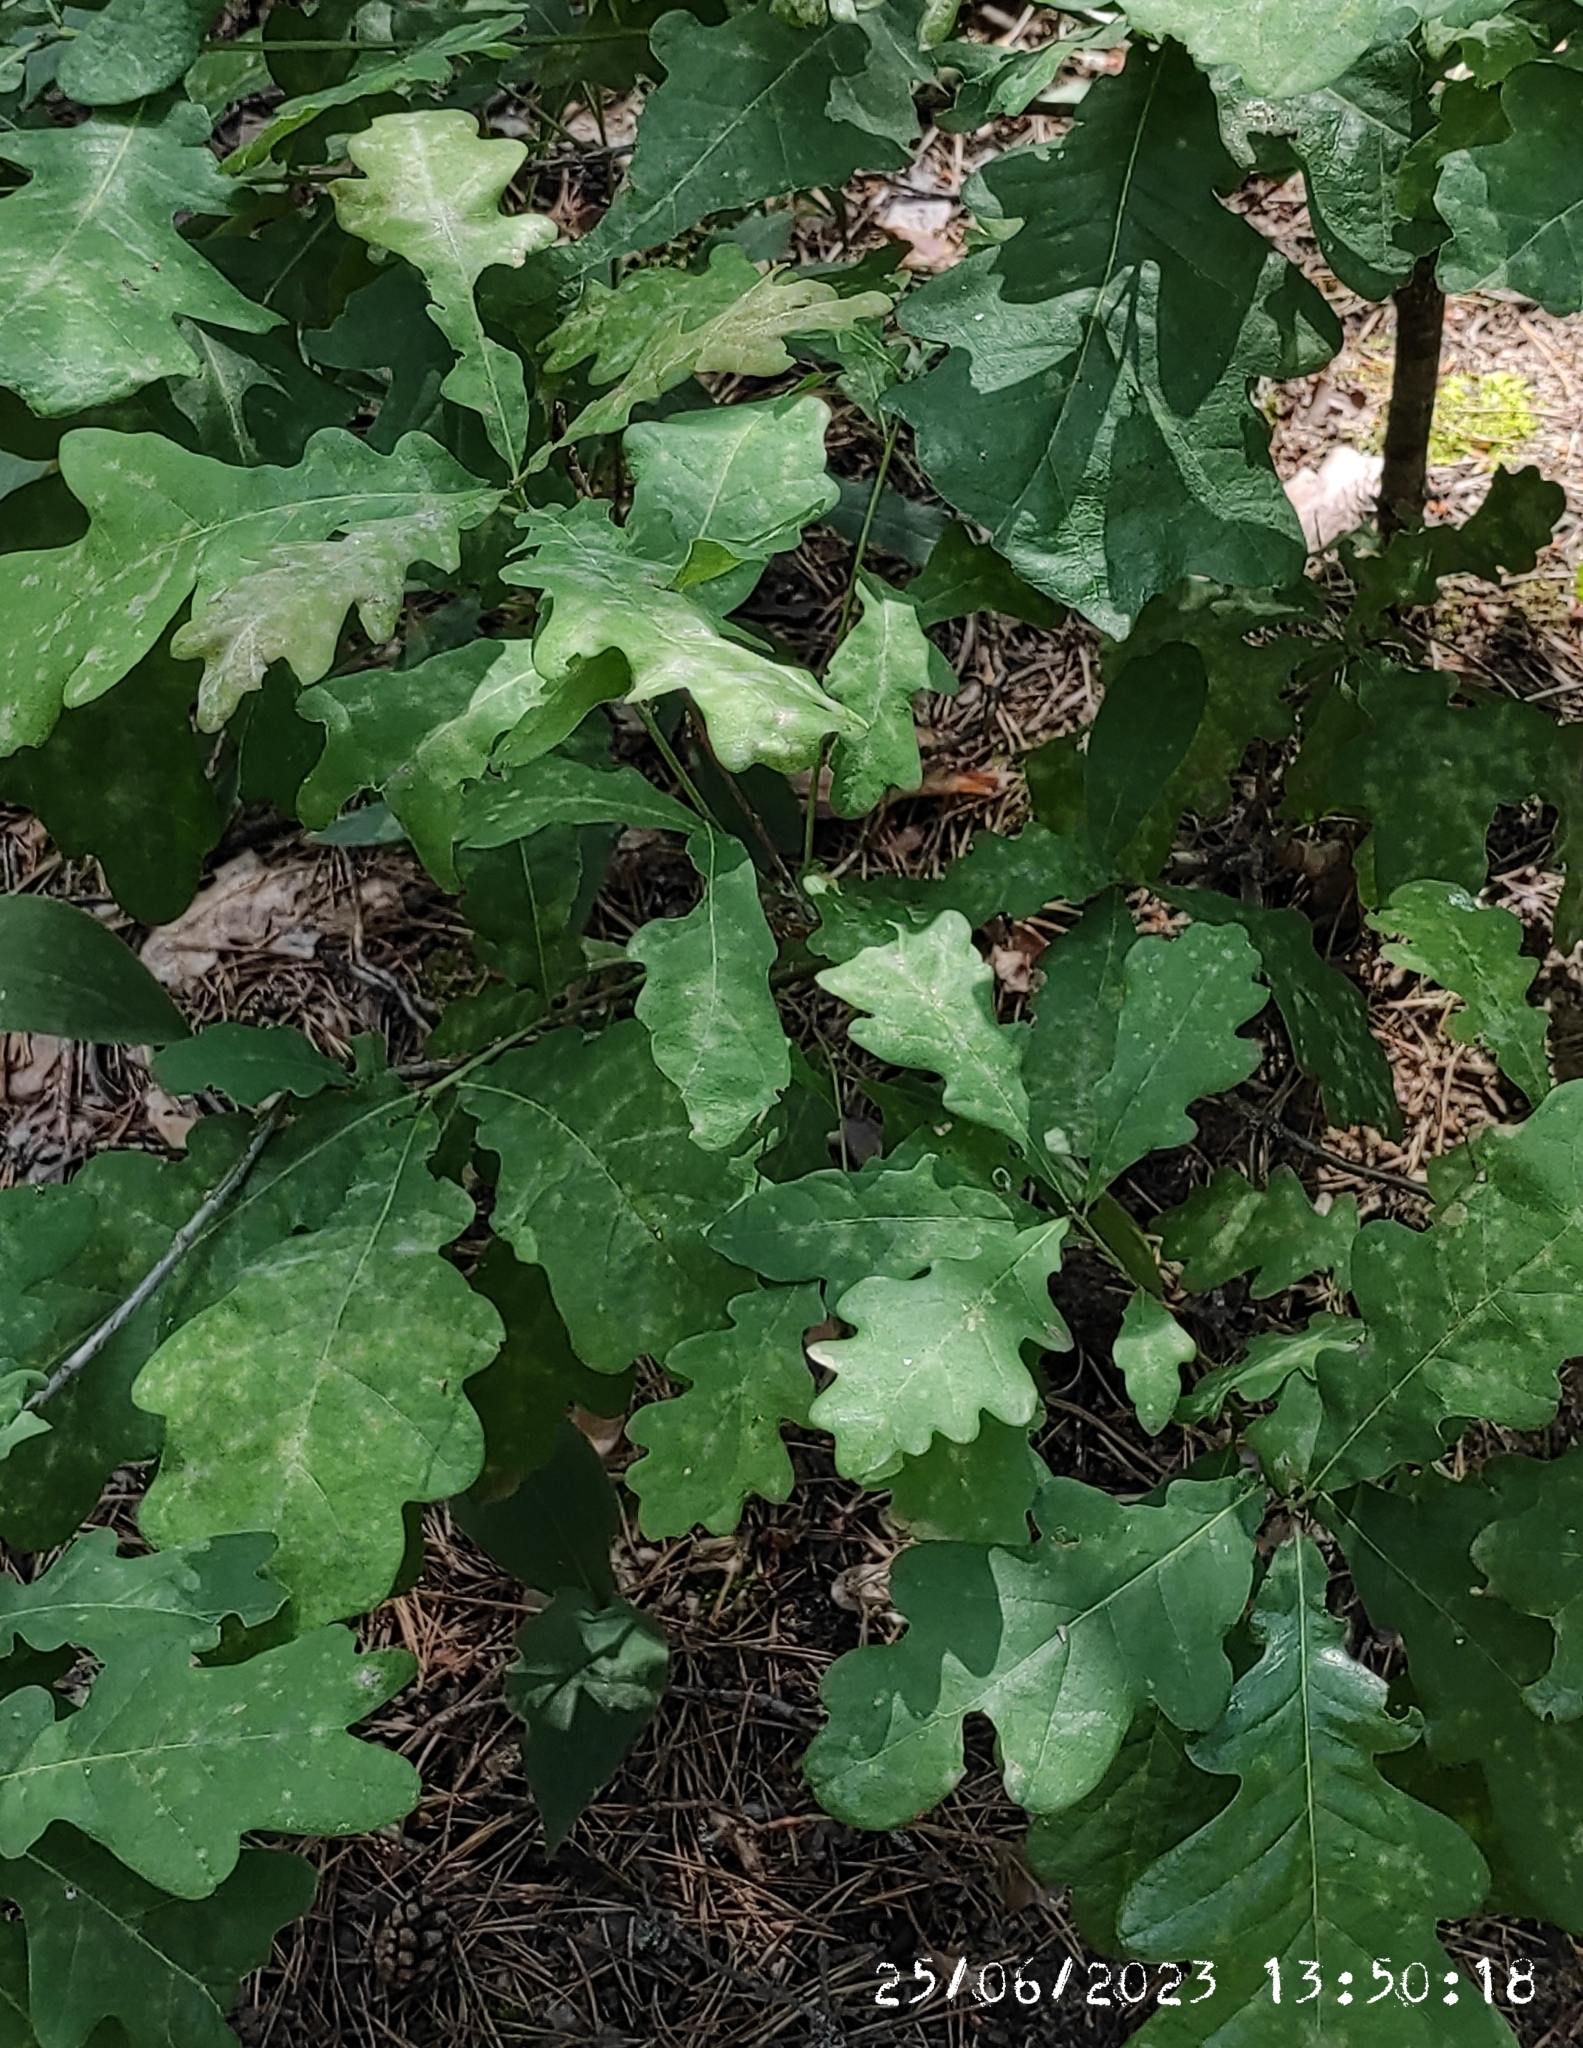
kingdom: Plantae
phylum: Tracheophyta
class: Magnoliopsida
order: Fagales
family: Fagaceae
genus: Quercus
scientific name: Quercus robur
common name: Pedunculate oak
